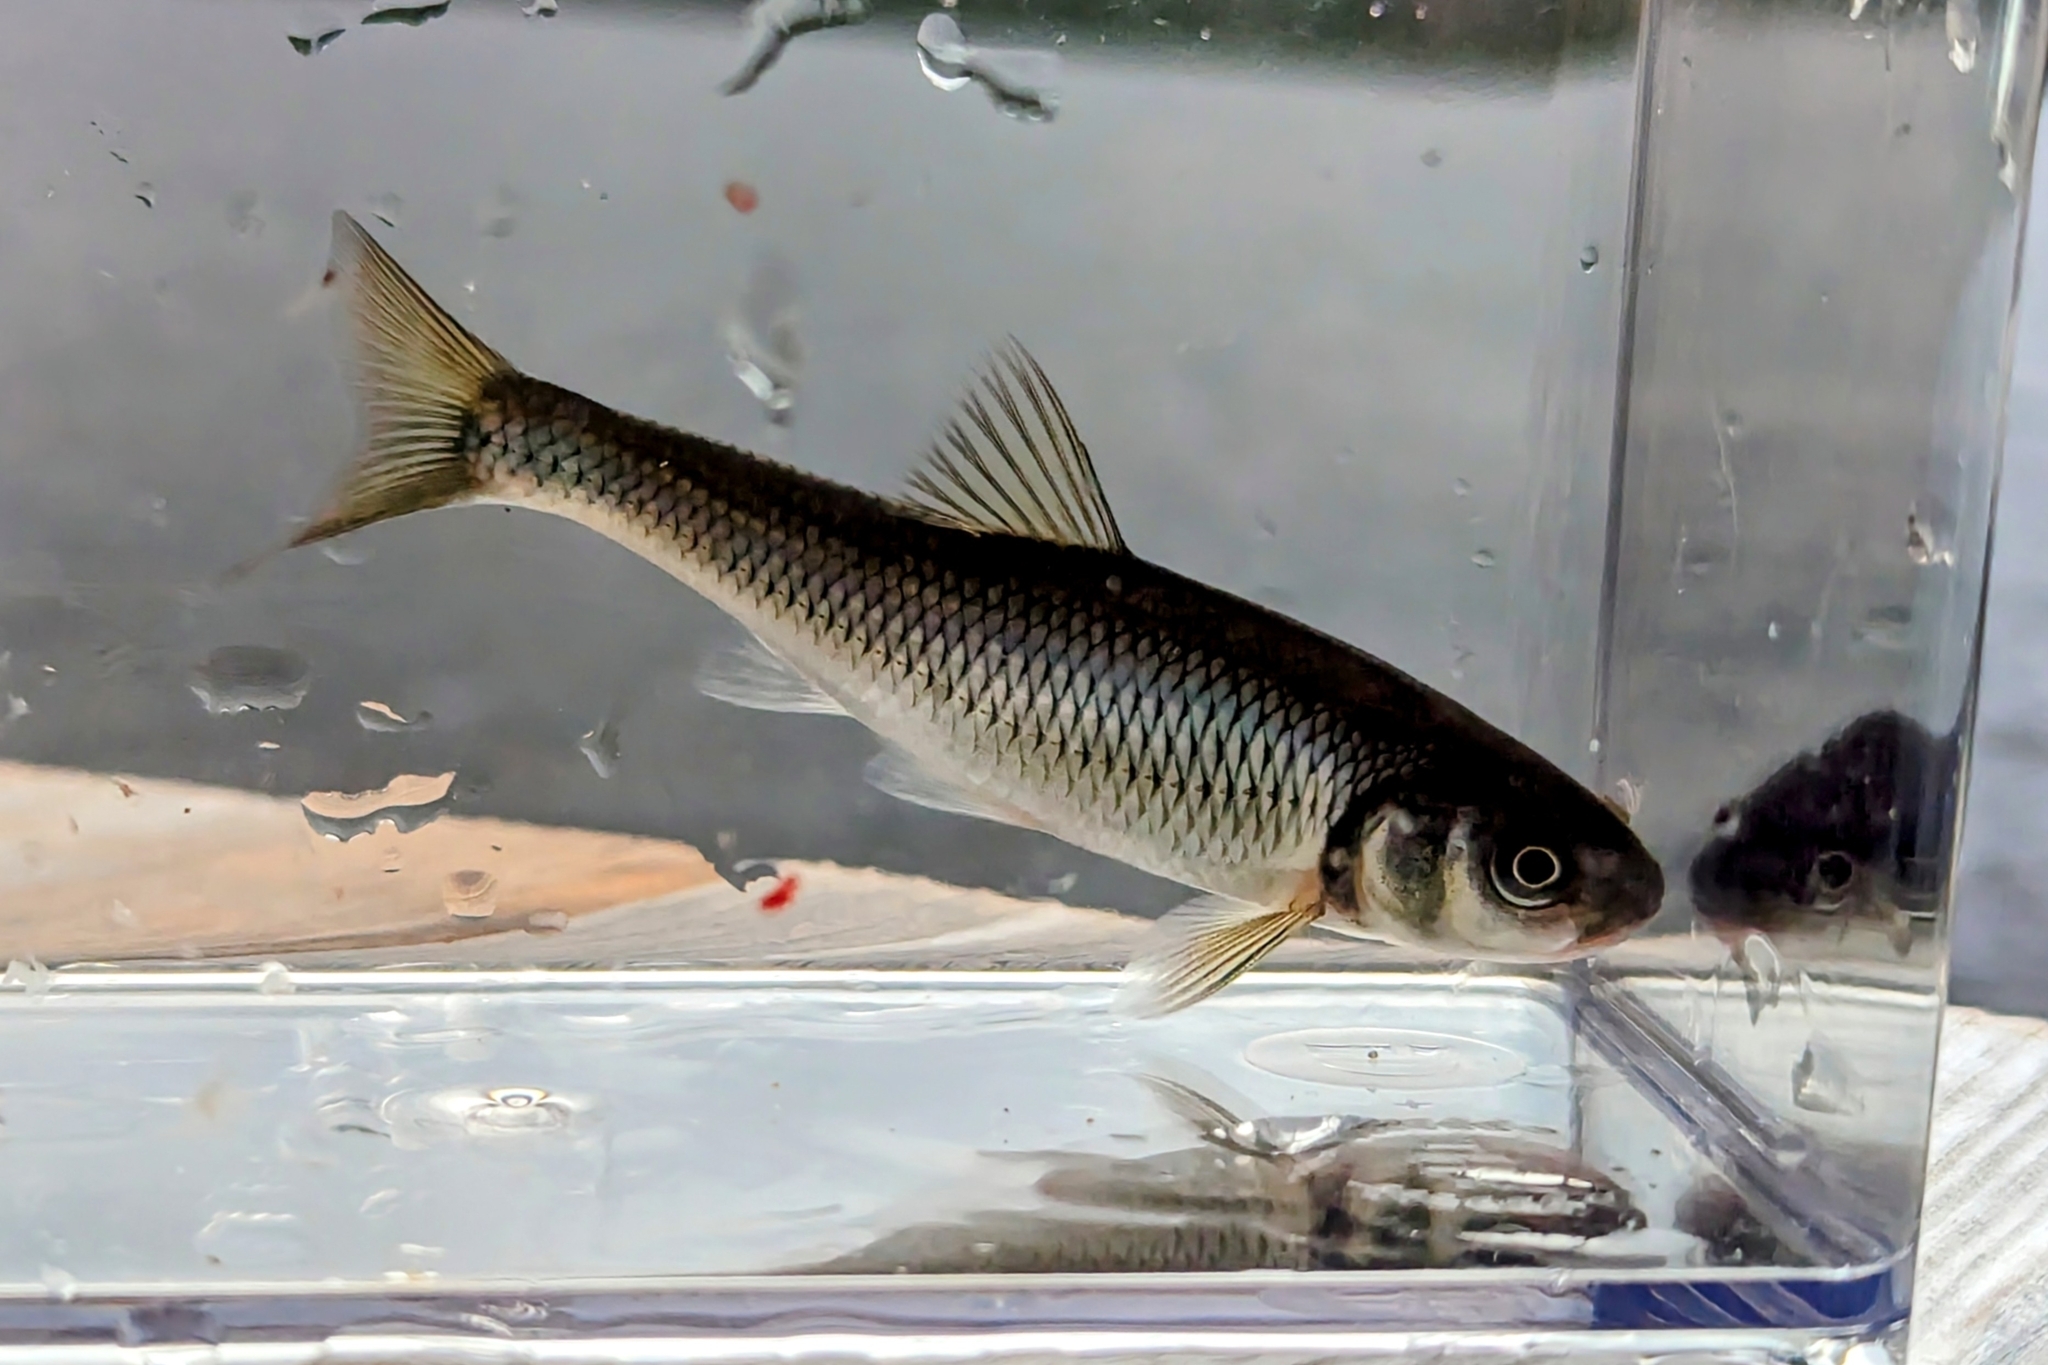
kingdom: Animalia
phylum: Chordata
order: Cypriniformes
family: Cyprinidae
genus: Luxilus
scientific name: Luxilus cornutus
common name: Common shiner
